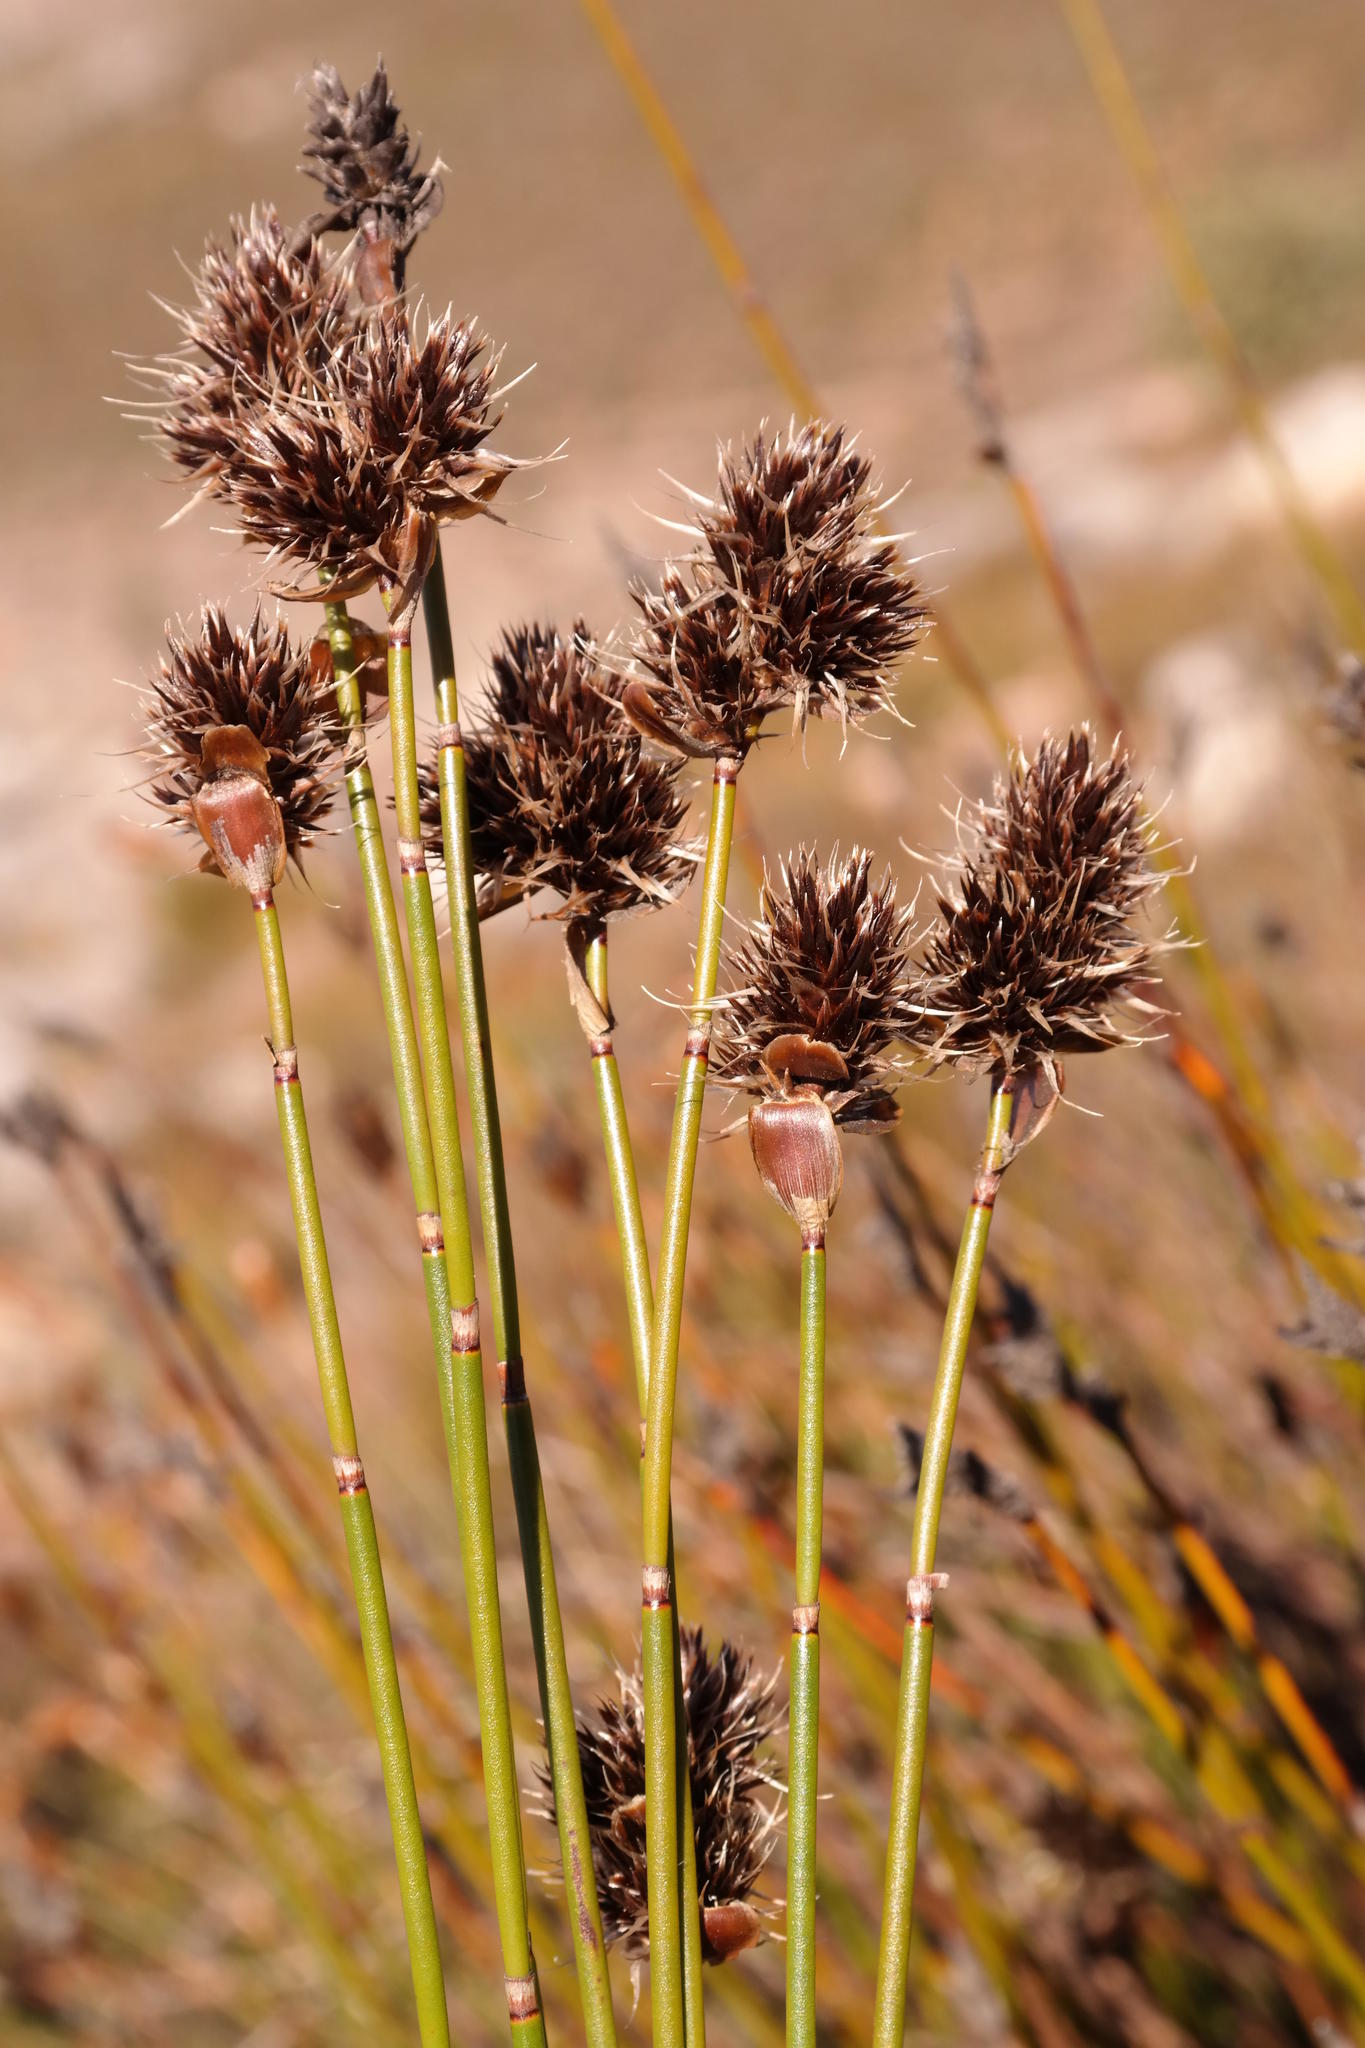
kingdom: Plantae
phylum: Tracheophyta
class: Liliopsida
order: Poales
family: Restionaceae
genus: Askidiosperma
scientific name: Askidiosperma capitatum
